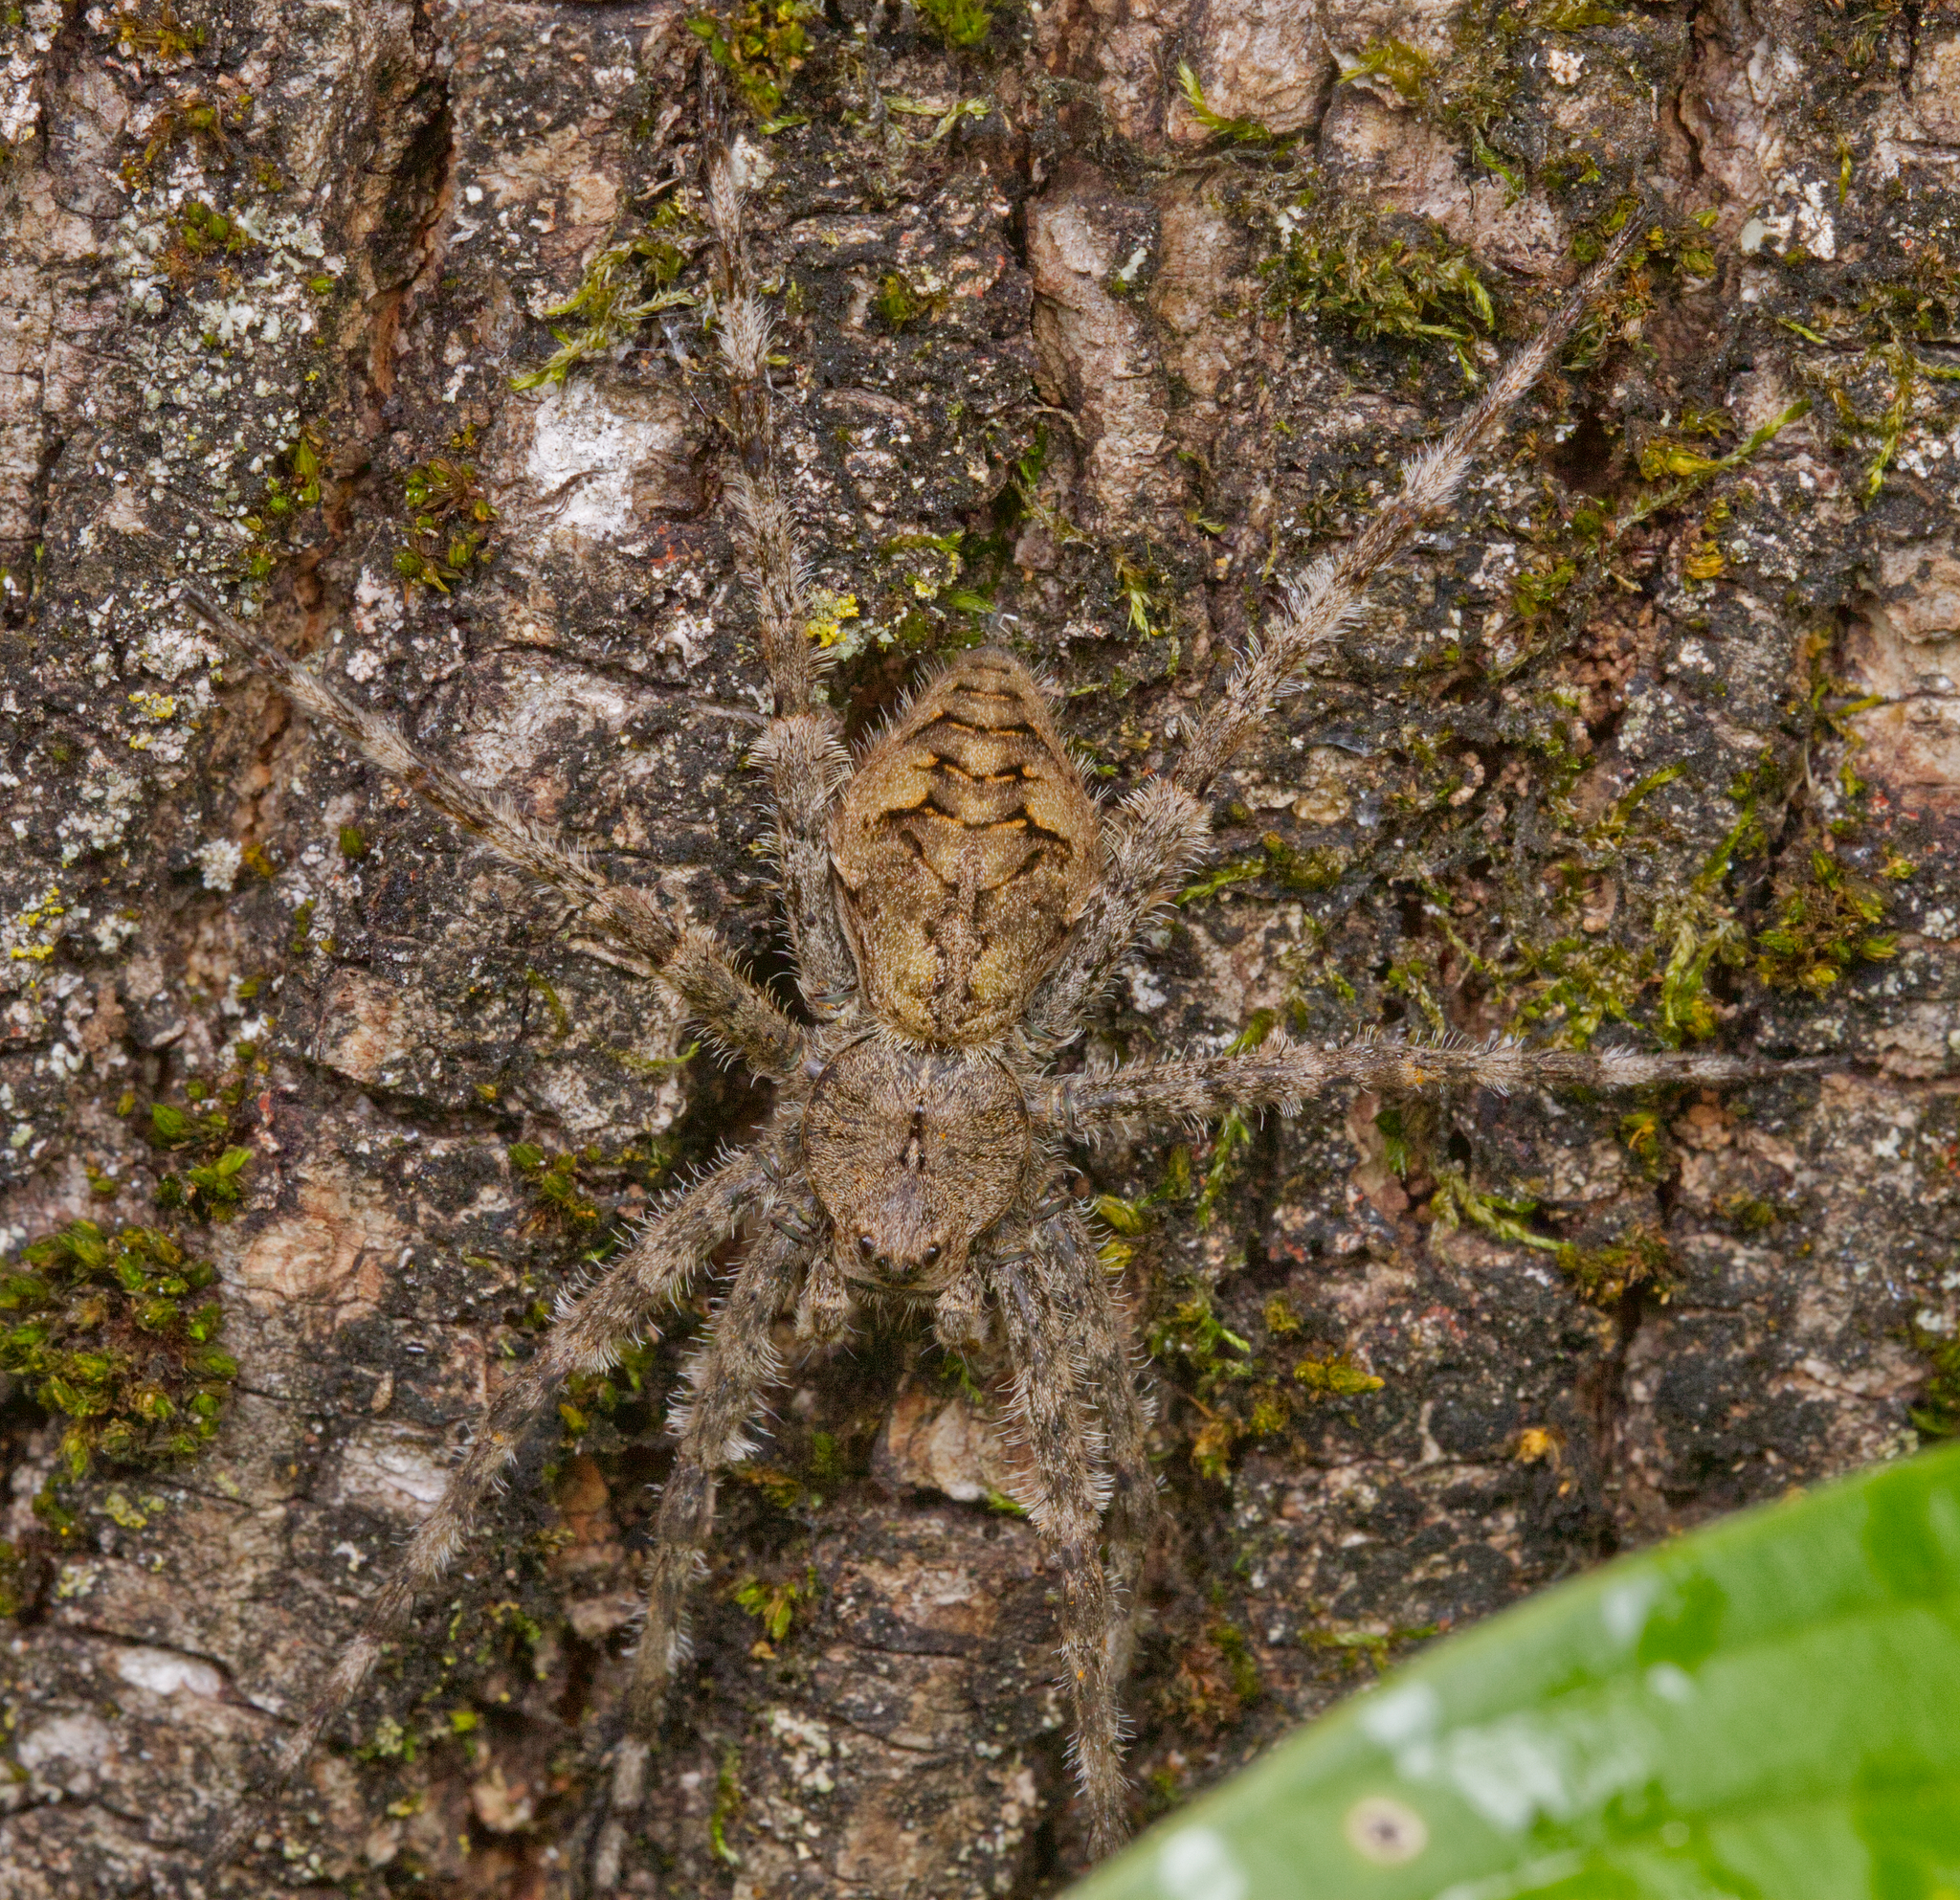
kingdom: Animalia
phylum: Arthropoda
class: Arachnida
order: Araneae
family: Pisauridae
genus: Dolomedes
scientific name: Dolomedes albineus
